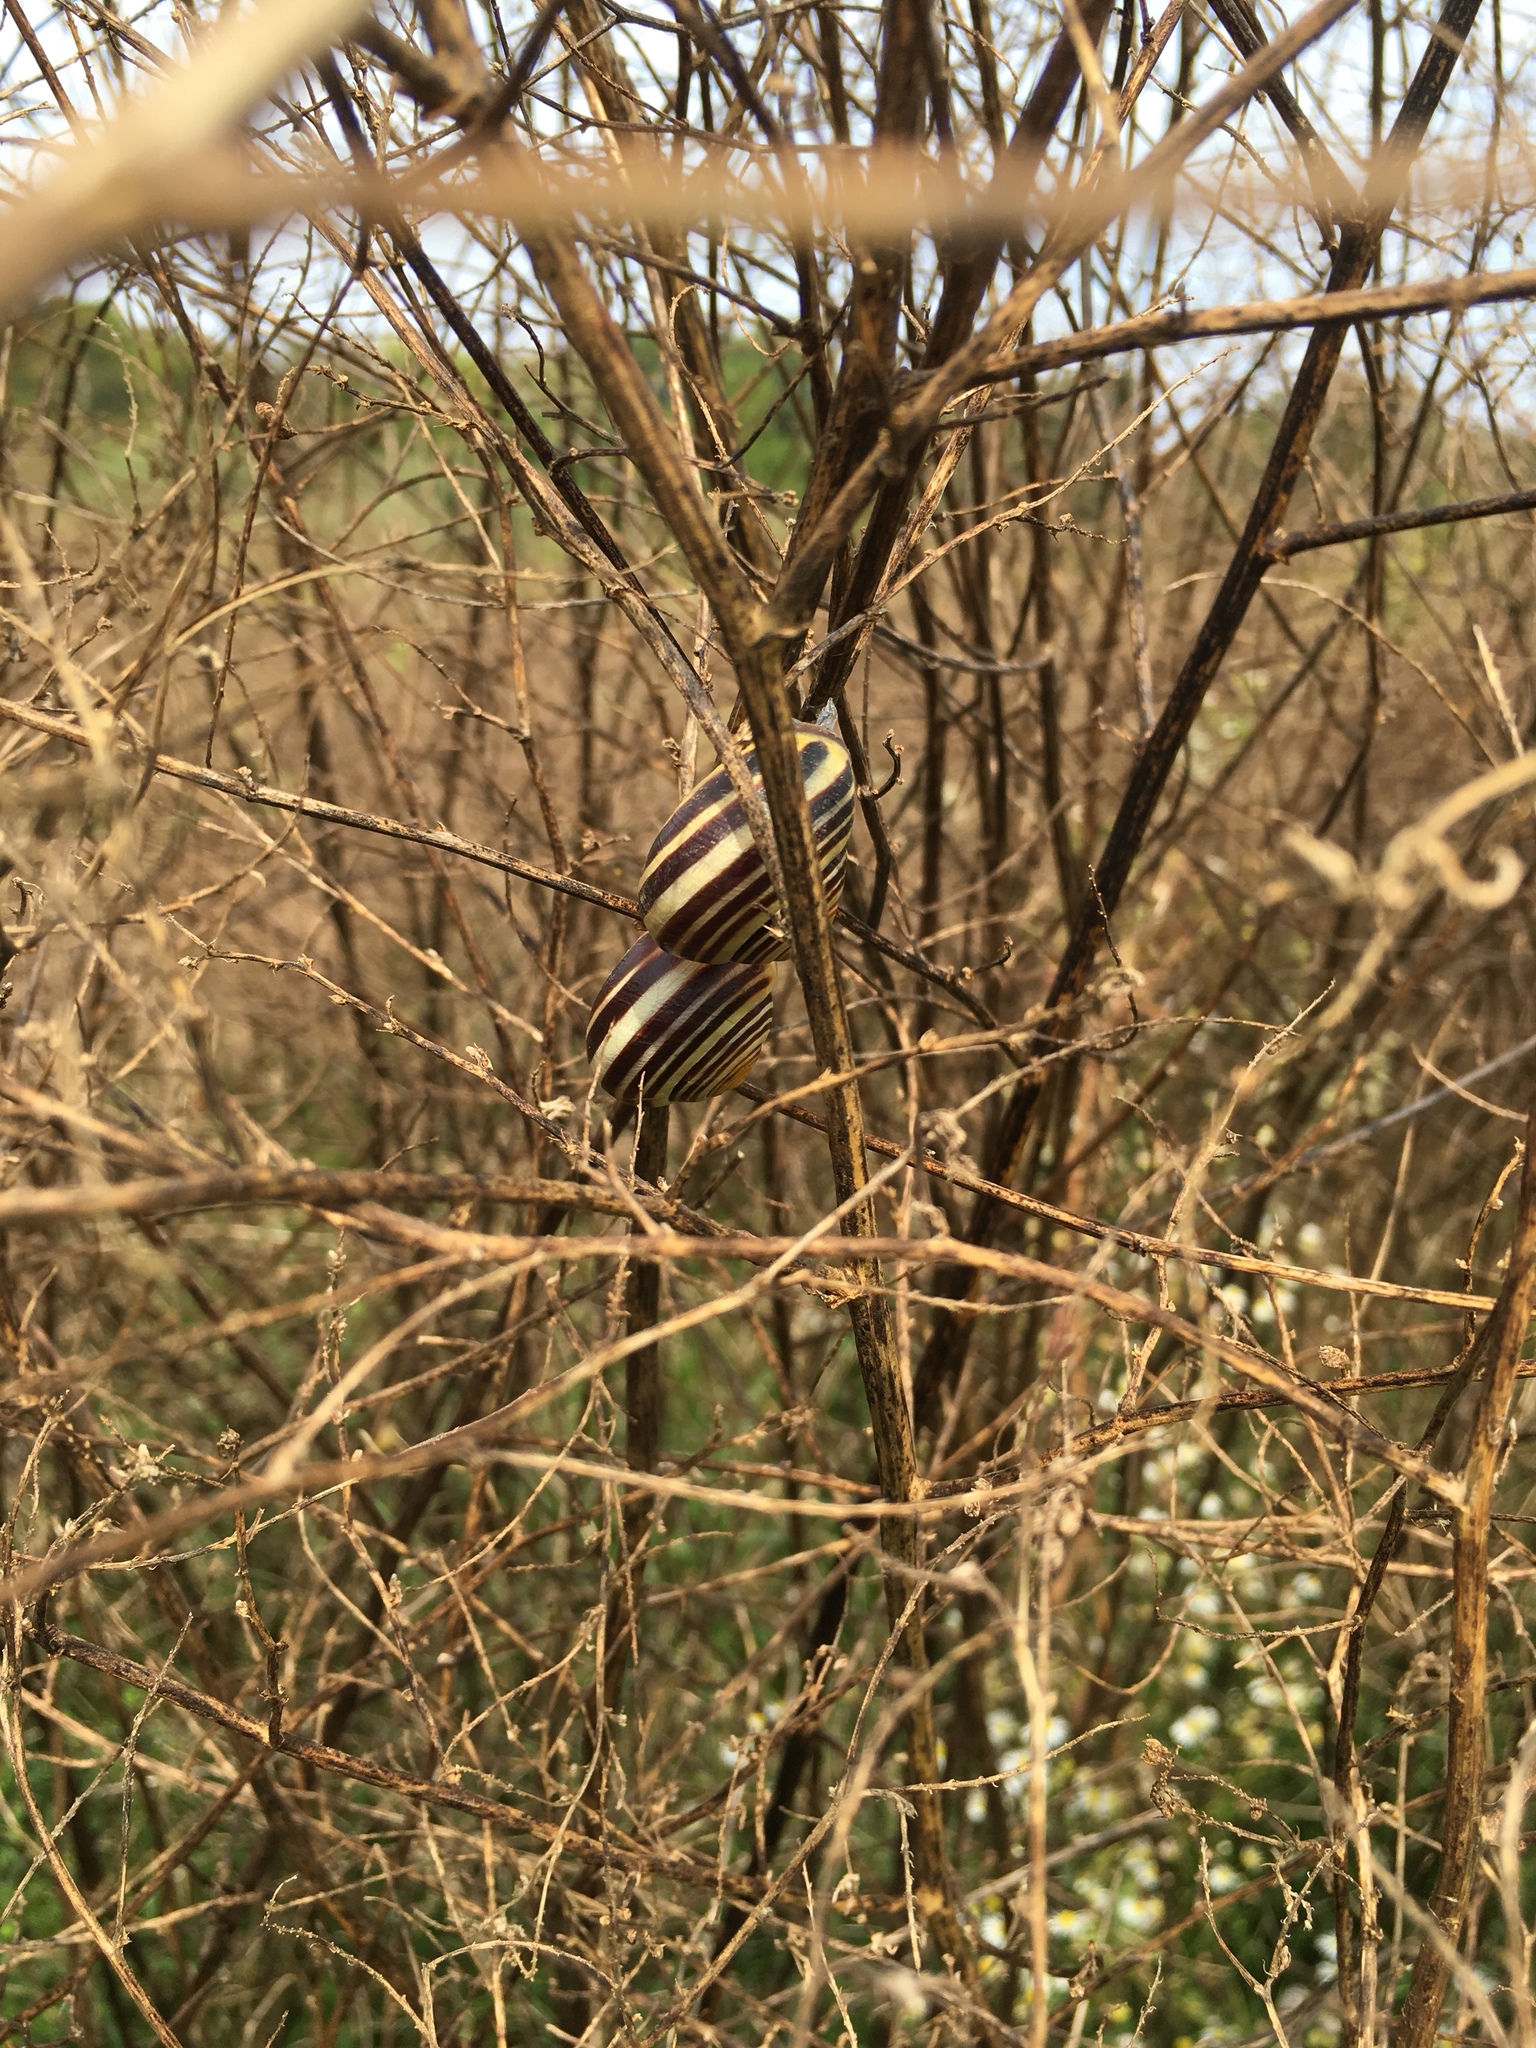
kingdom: Animalia
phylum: Mollusca
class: Gastropoda
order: Stylommatophora
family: Helicidae
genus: Cepaea
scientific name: Cepaea nemoralis
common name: Grovesnail
